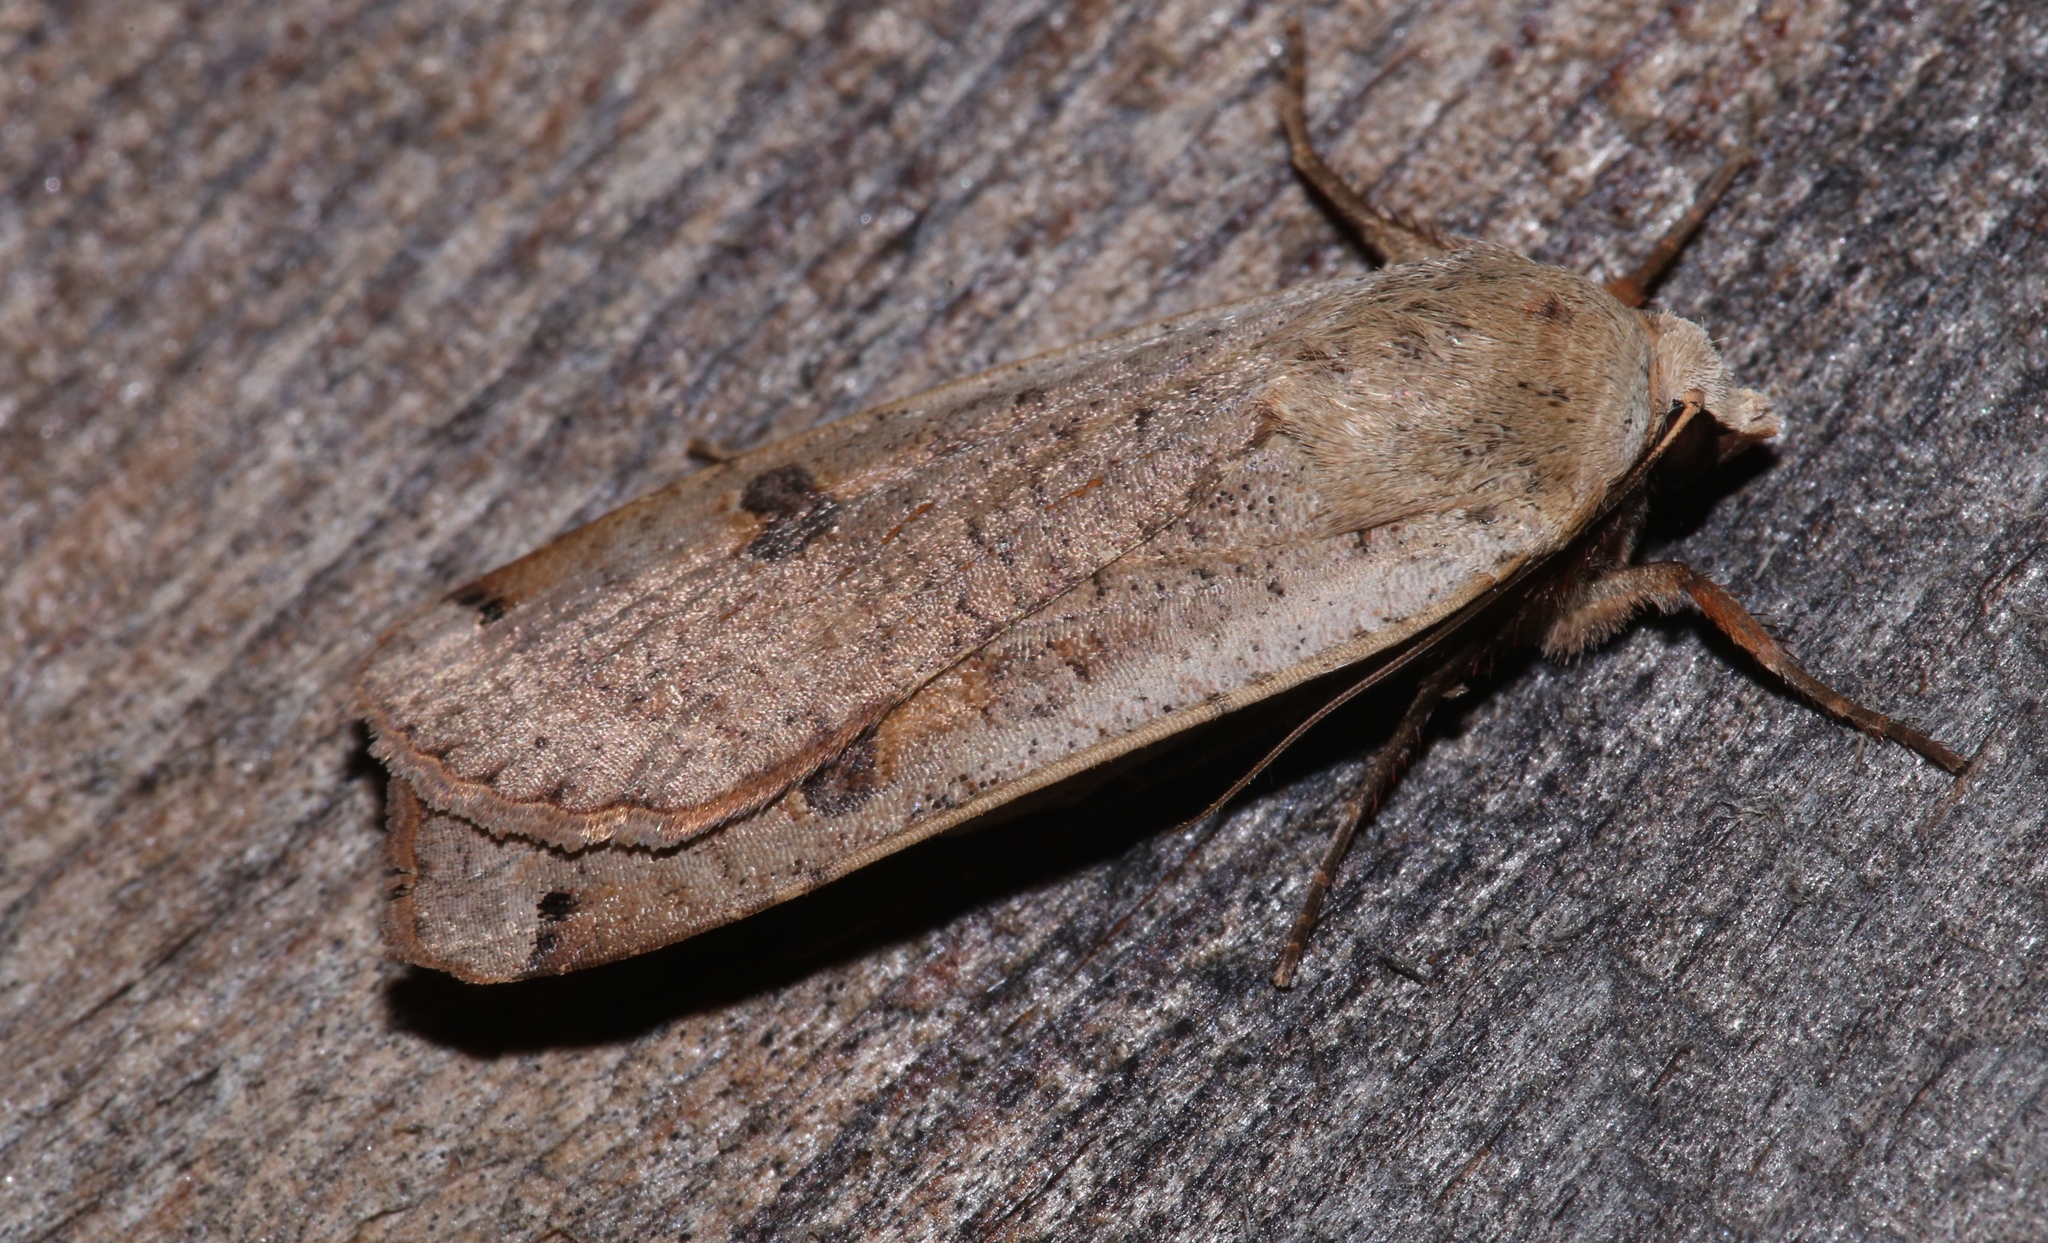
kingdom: Animalia
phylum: Arthropoda
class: Insecta
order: Lepidoptera
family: Noctuidae
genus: Noctua
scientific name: Noctua pronuba
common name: Large yellow underwing
